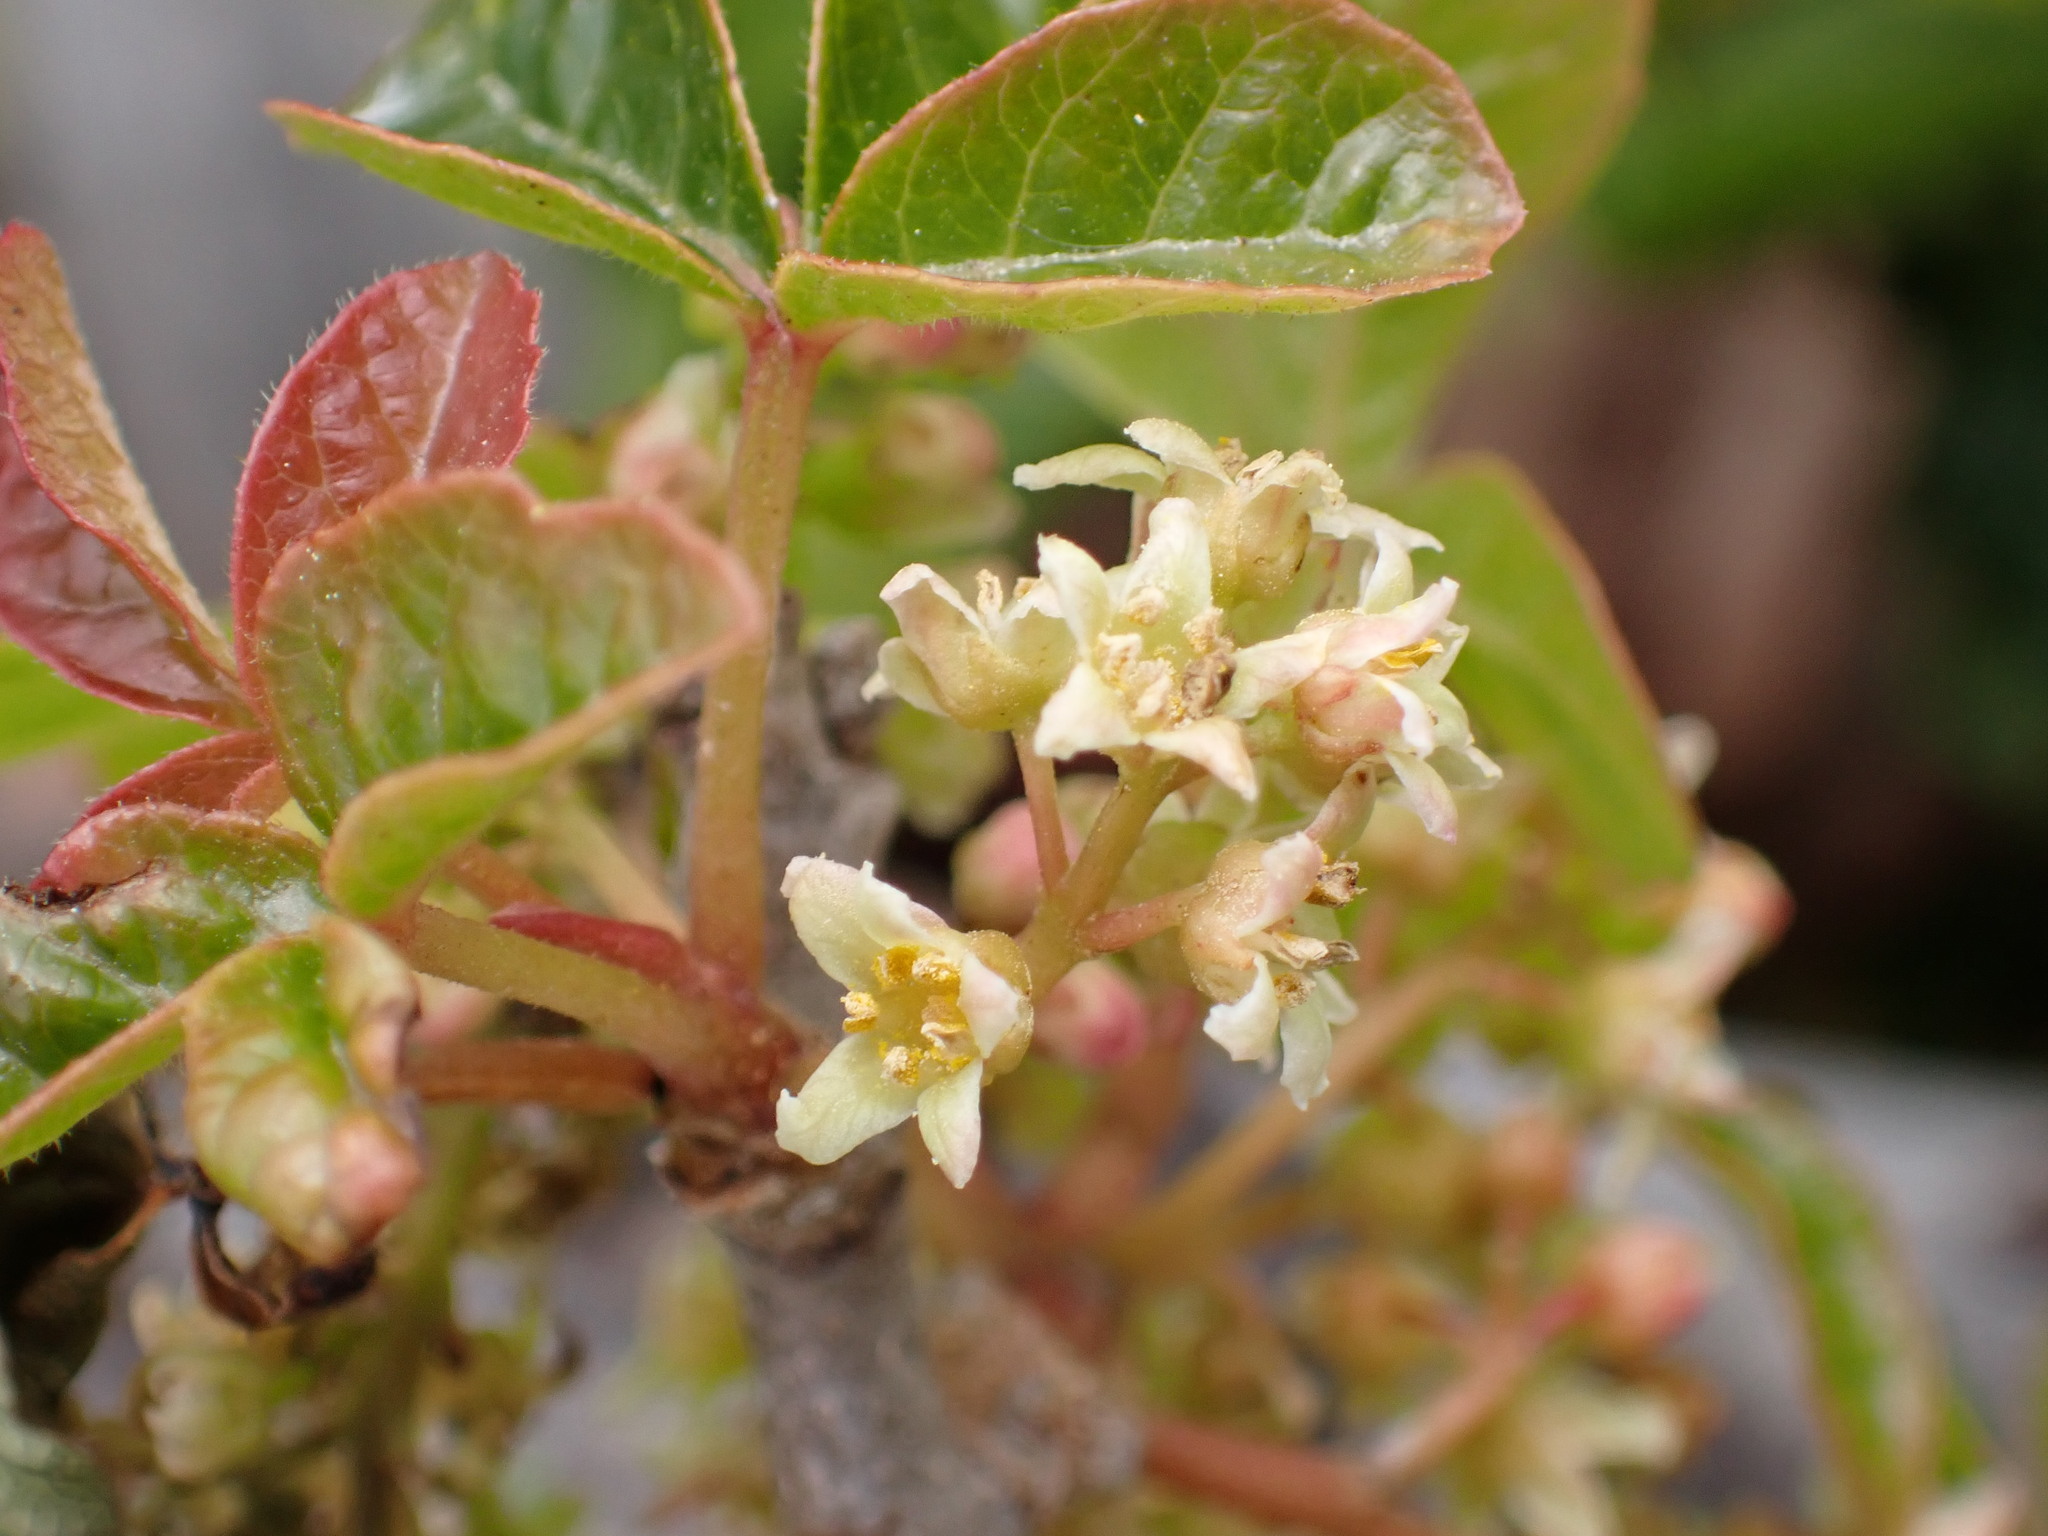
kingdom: Plantae
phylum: Tracheophyta
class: Magnoliopsida
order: Sapindales
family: Anacardiaceae
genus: Toxicodendron
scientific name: Toxicodendron diversilobum
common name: Pacific poison-oak
